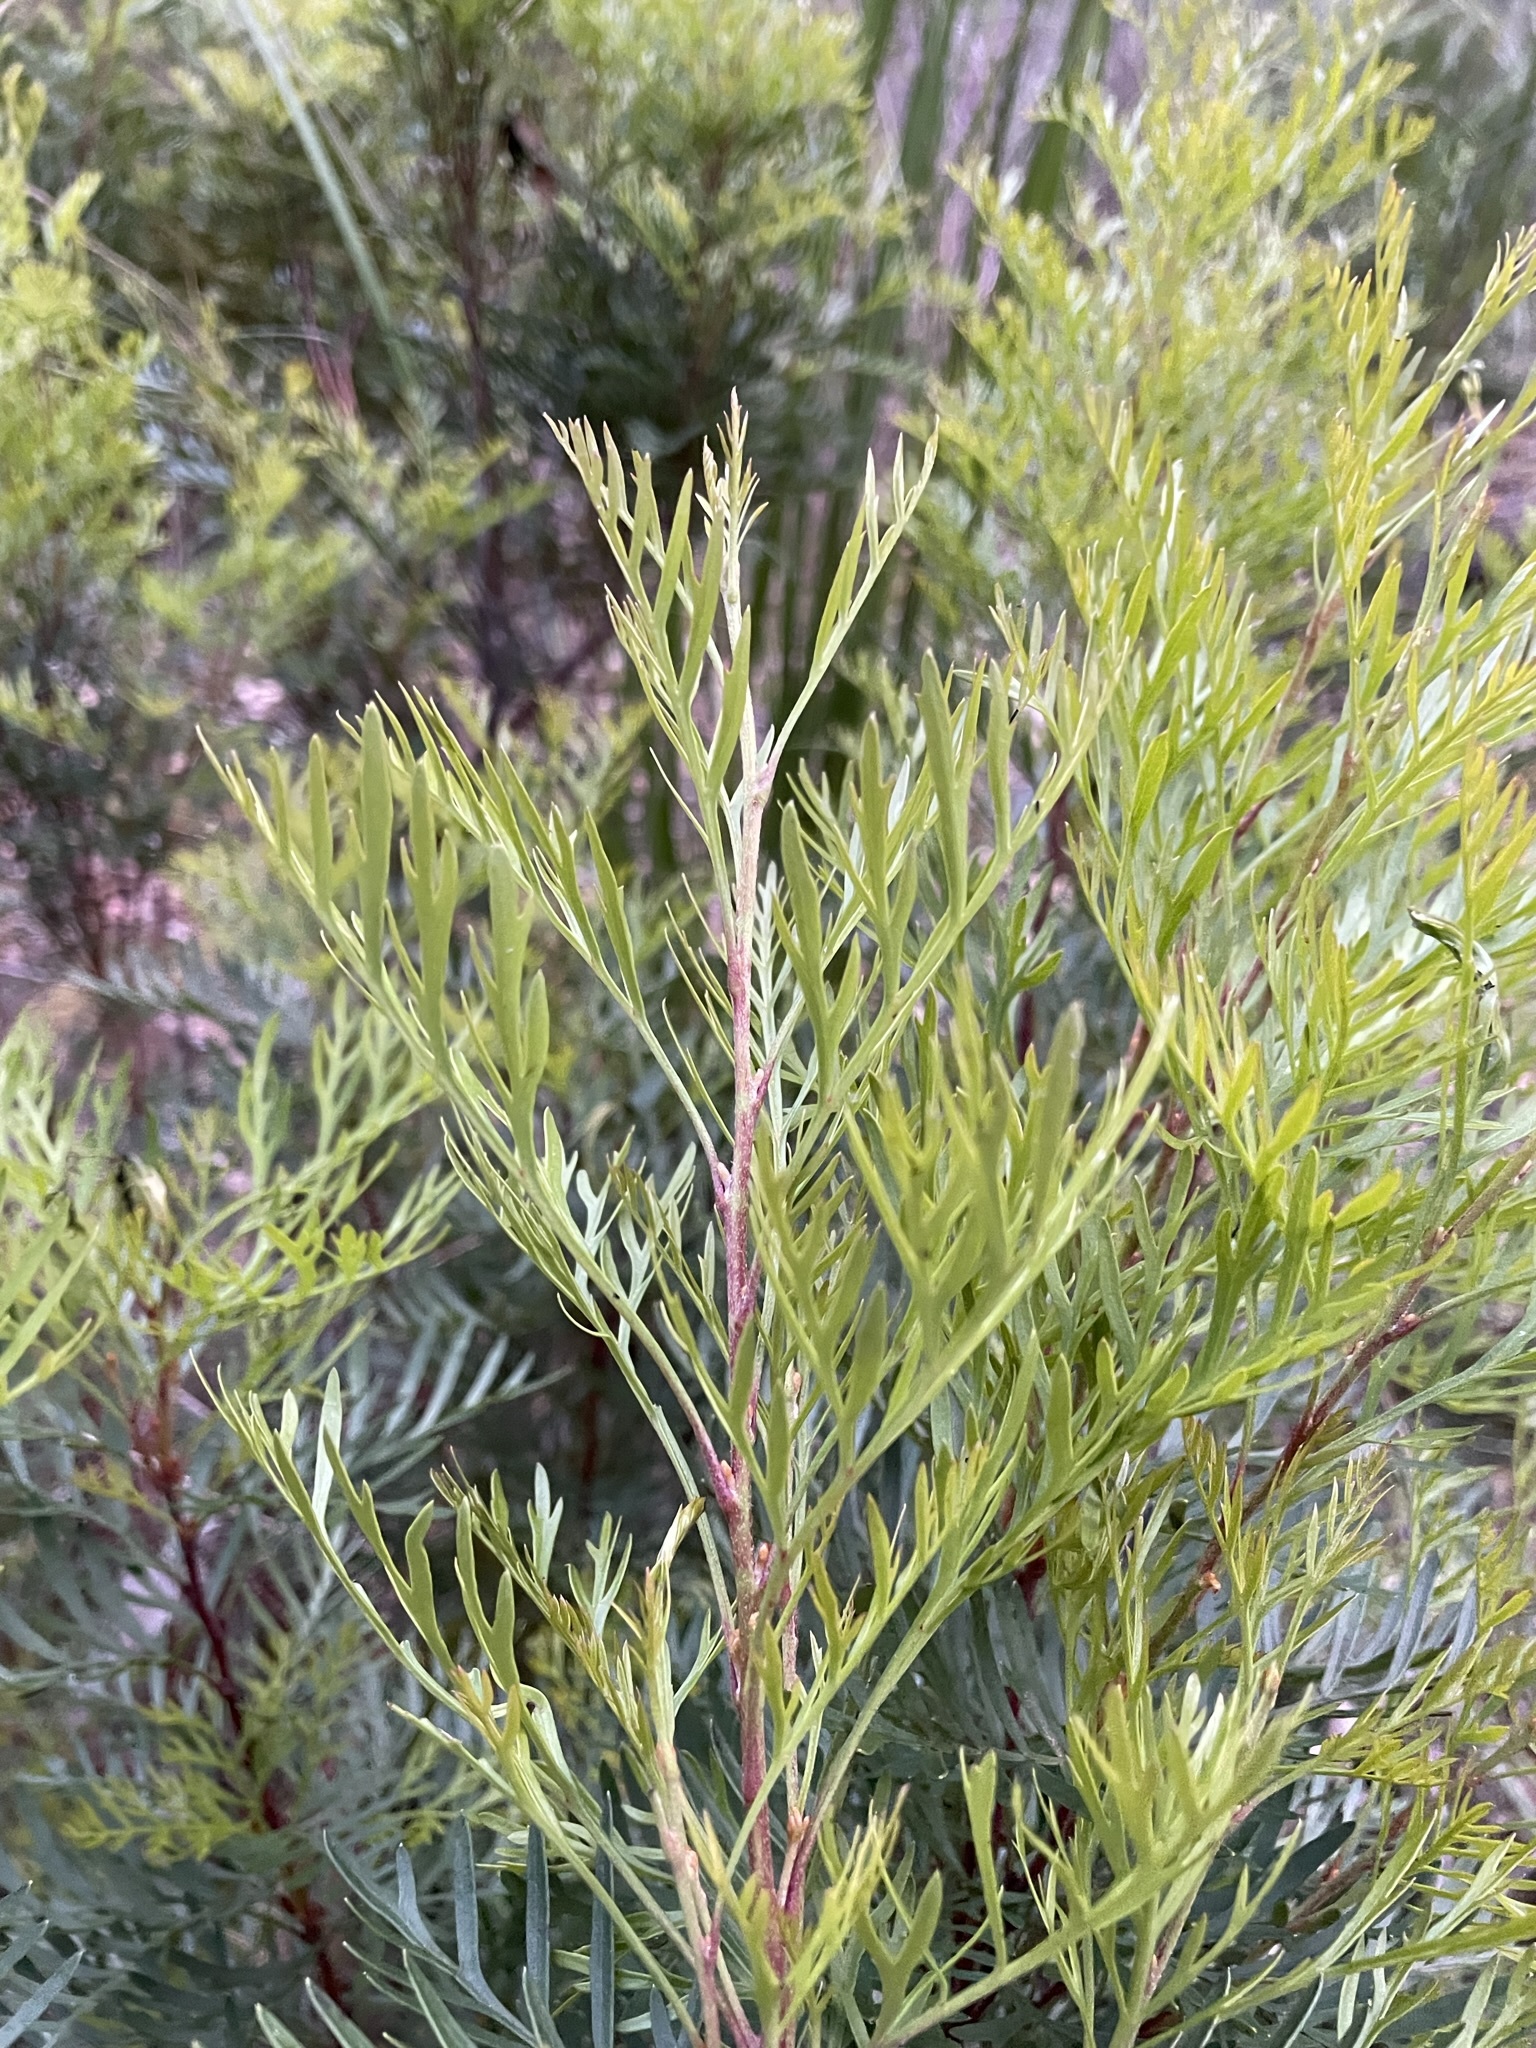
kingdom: Plantae
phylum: Tracheophyta
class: Magnoliopsida
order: Proteales
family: Proteaceae
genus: Lomatia
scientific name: Lomatia tinctoria
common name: Guitar plant
